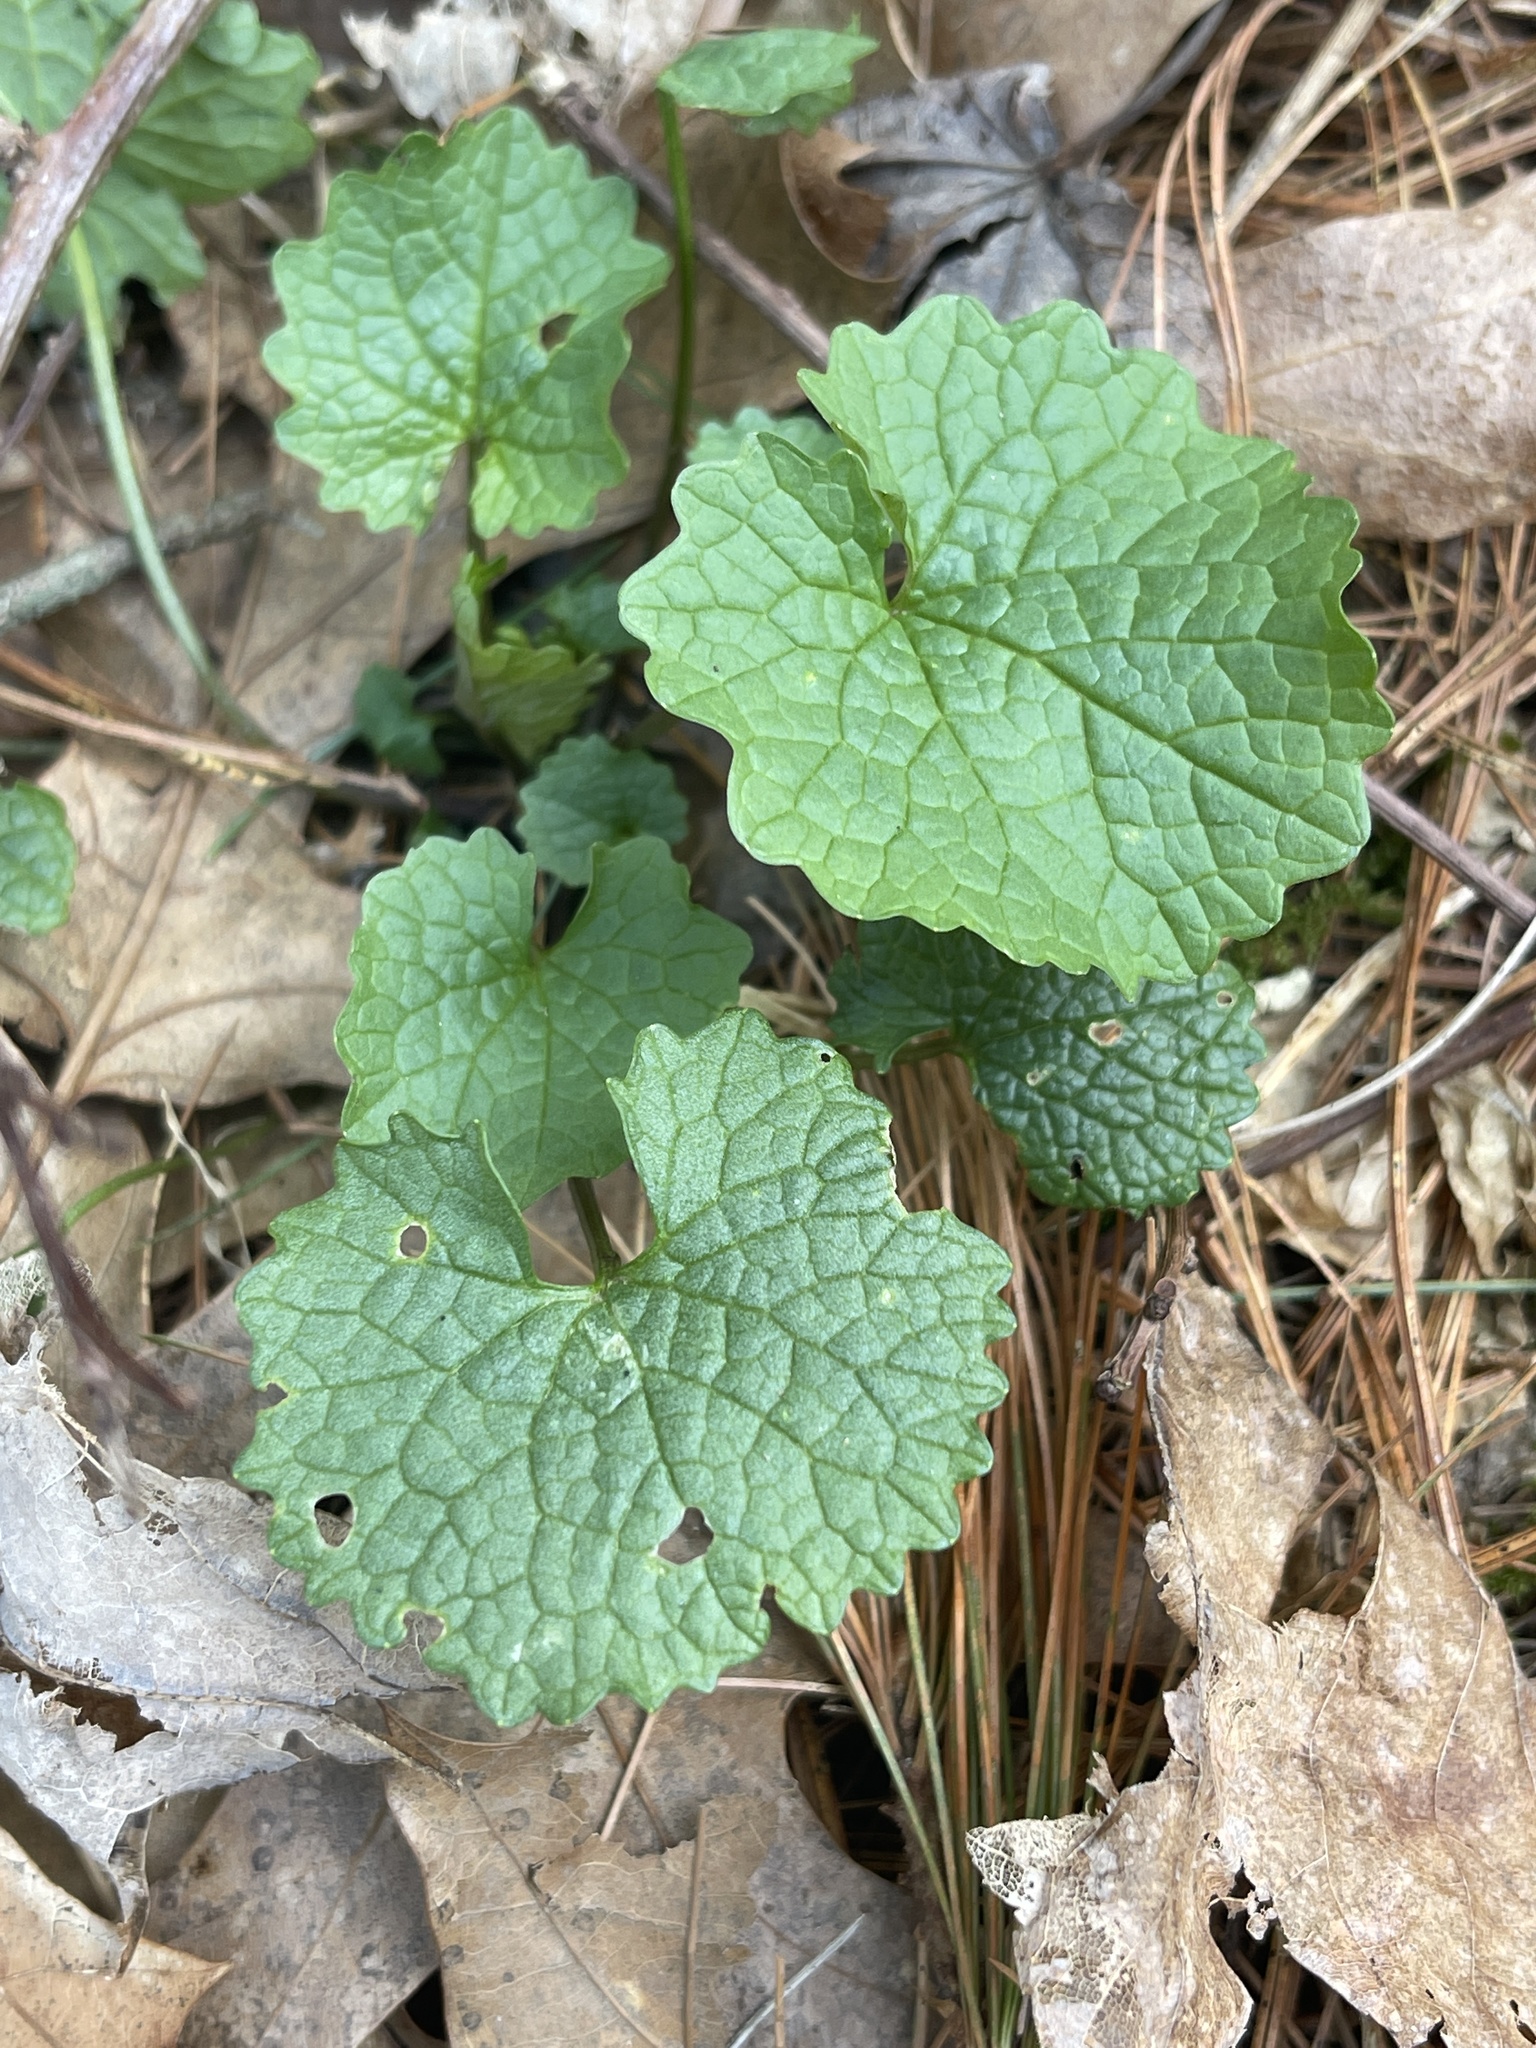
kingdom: Plantae
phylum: Tracheophyta
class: Magnoliopsida
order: Brassicales
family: Brassicaceae
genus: Alliaria
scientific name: Alliaria petiolata
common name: Garlic mustard
